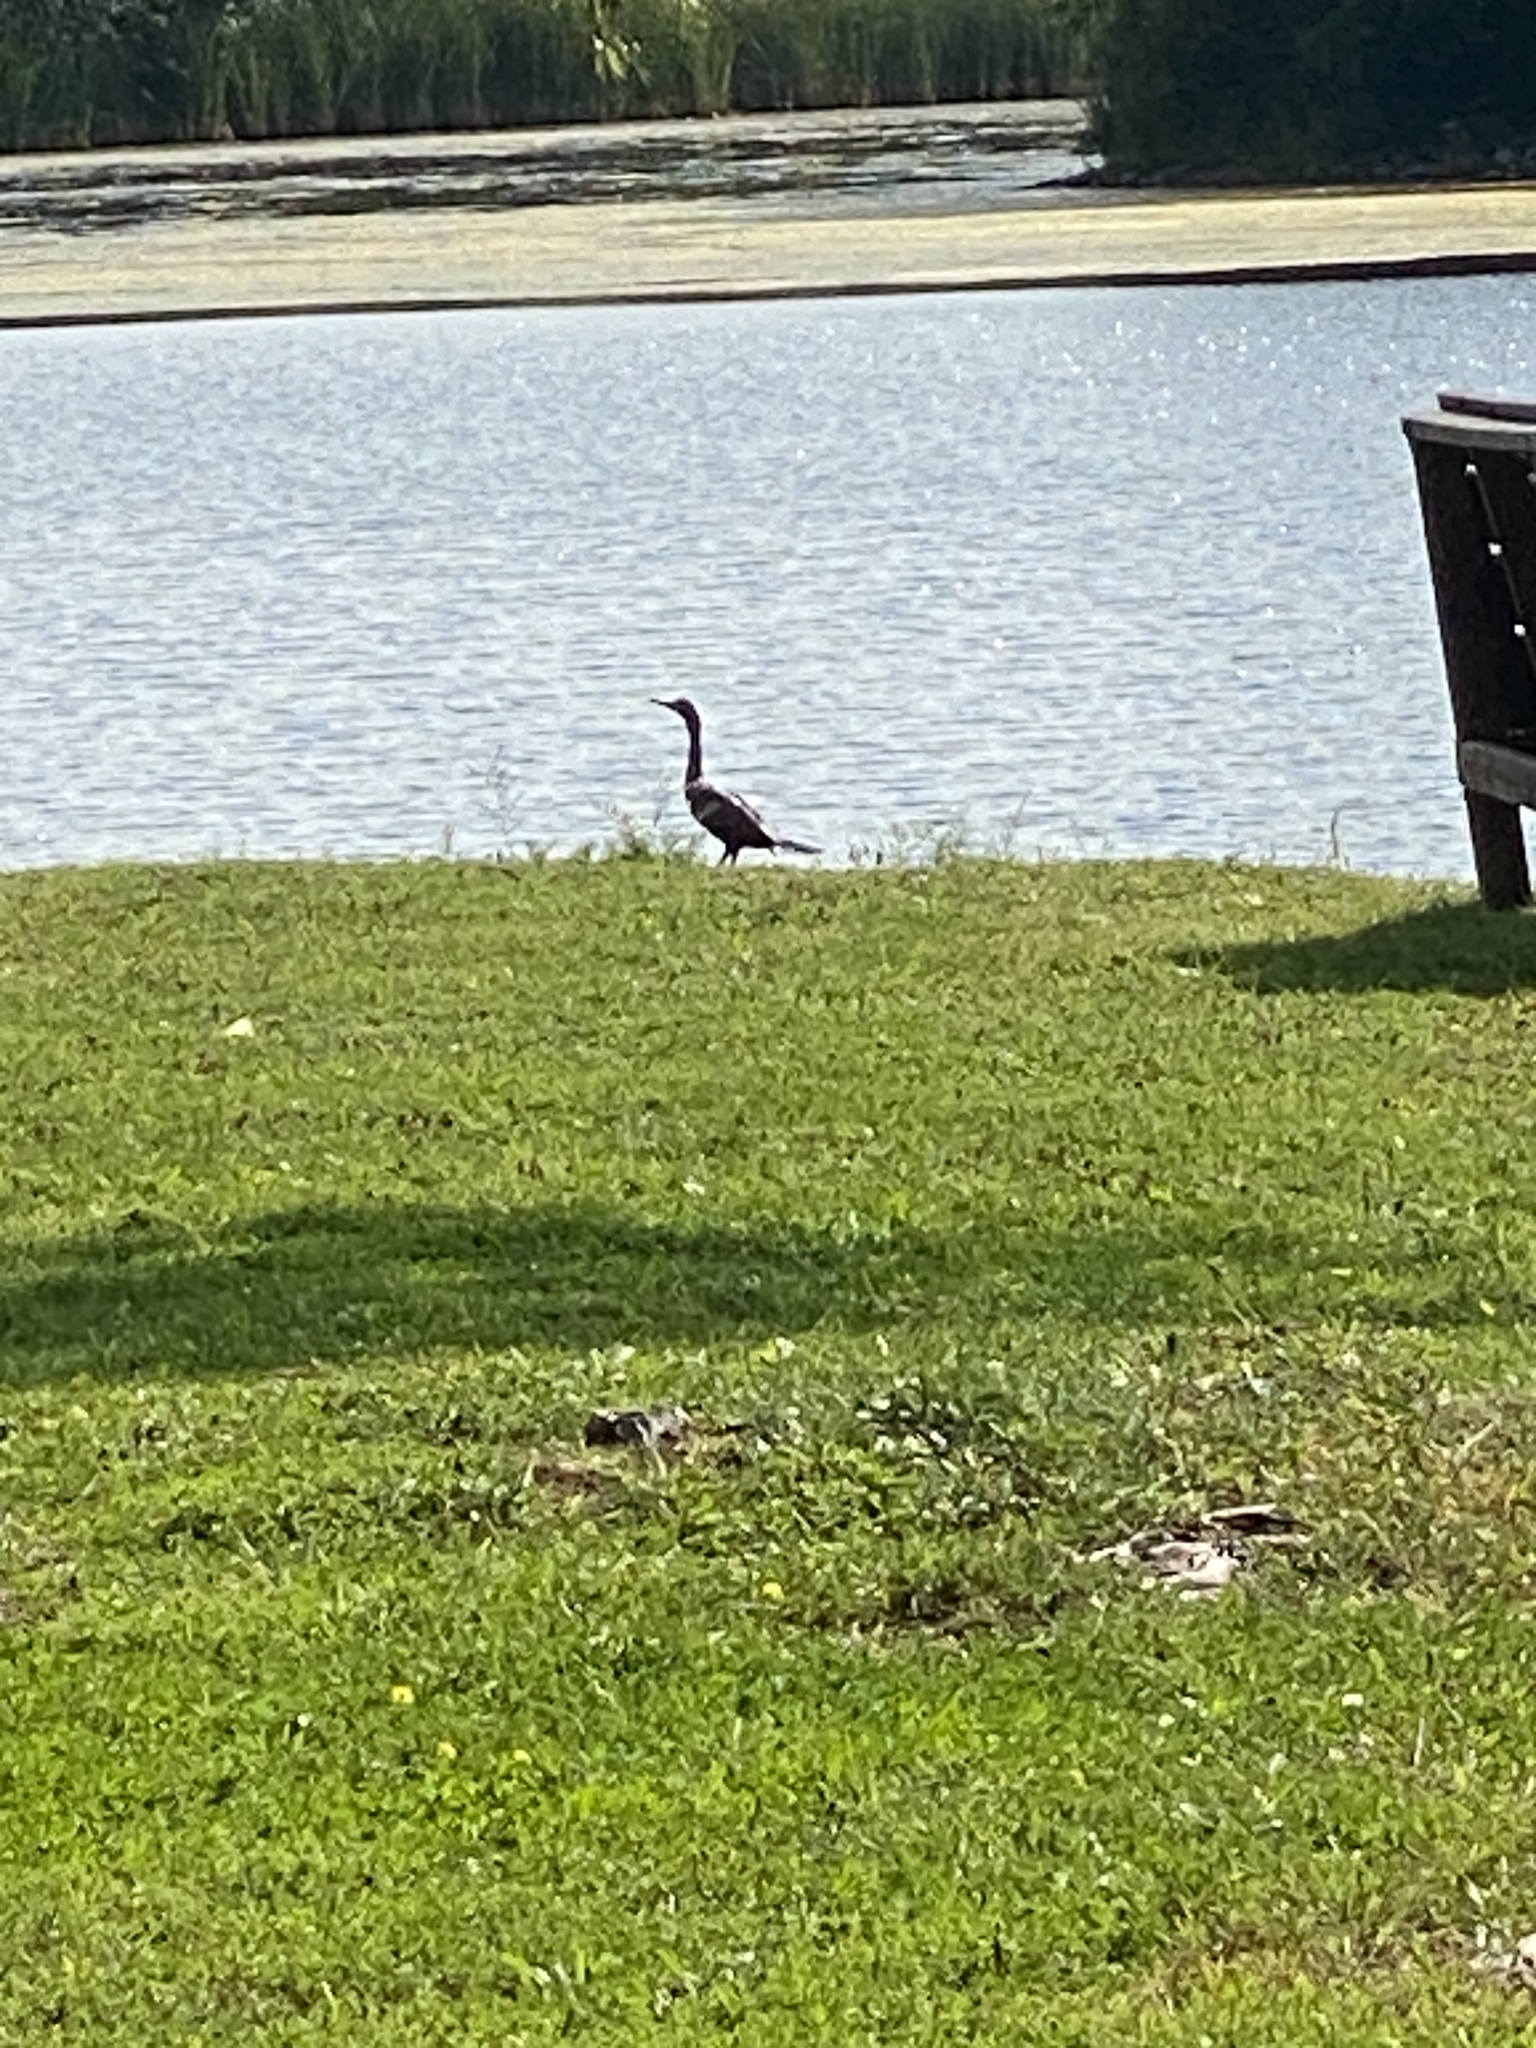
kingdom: Animalia
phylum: Chordata
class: Aves
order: Suliformes
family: Phalacrocoracidae
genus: Phalacrocorax
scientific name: Phalacrocorax auritus
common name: Double-crested cormorant
